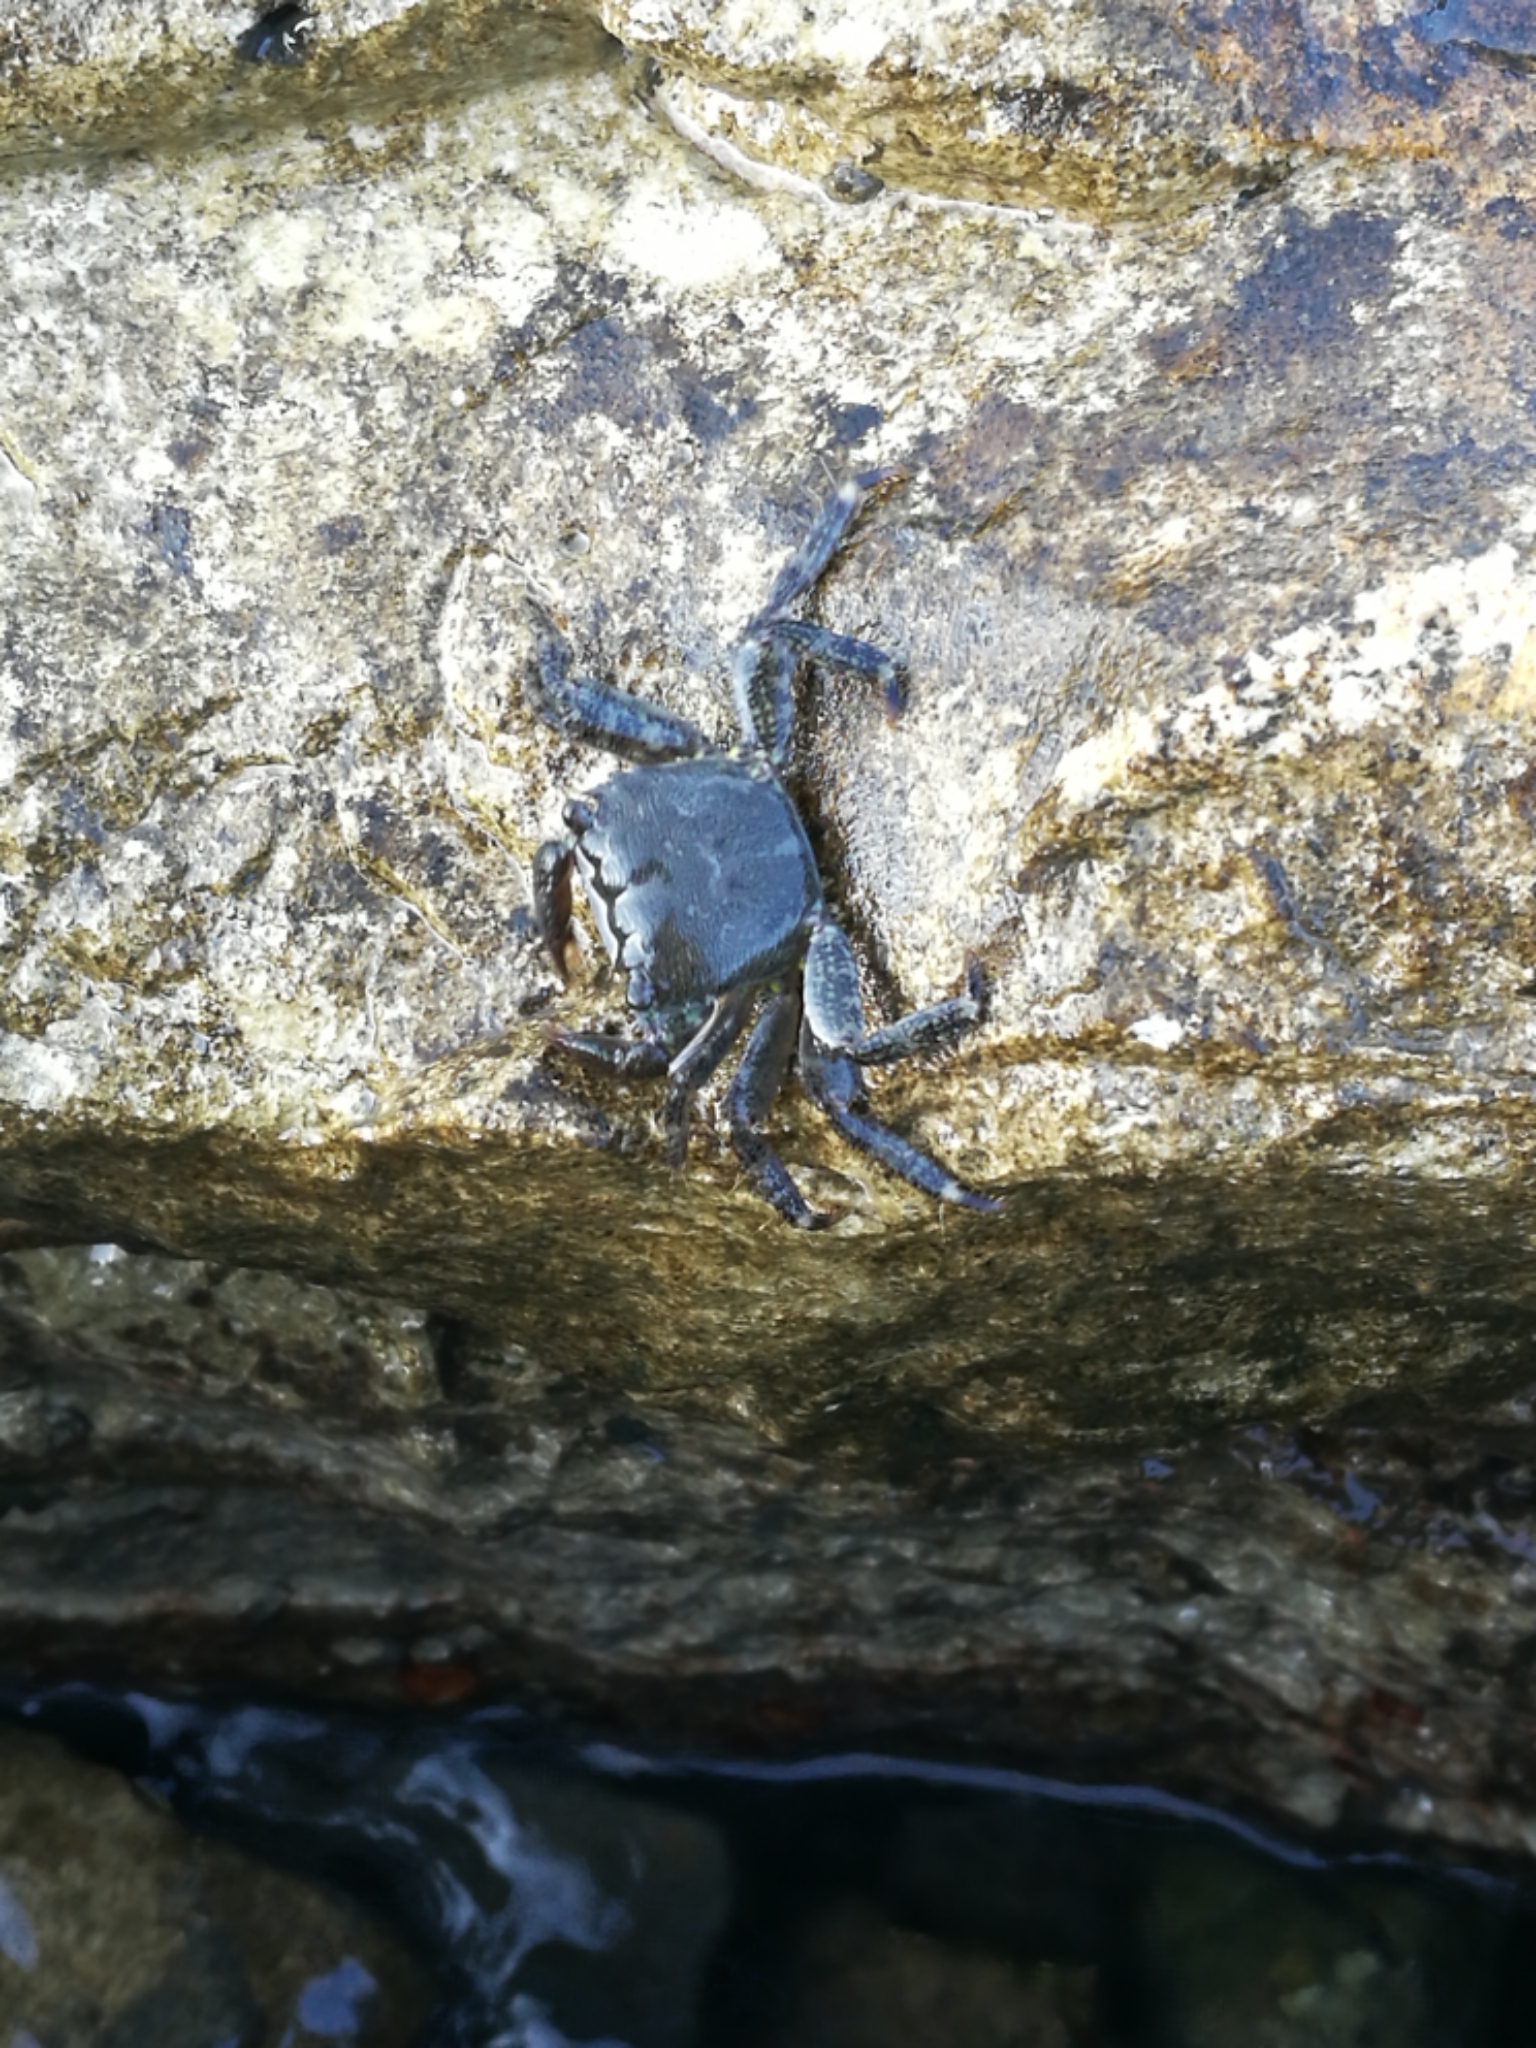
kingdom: Animalia
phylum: Arthropoda
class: Malacostraca
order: Decapoda
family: Grapsidae
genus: Pachygrapsus
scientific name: Pachygrapsus marmoratus
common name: Marbled rock crab
